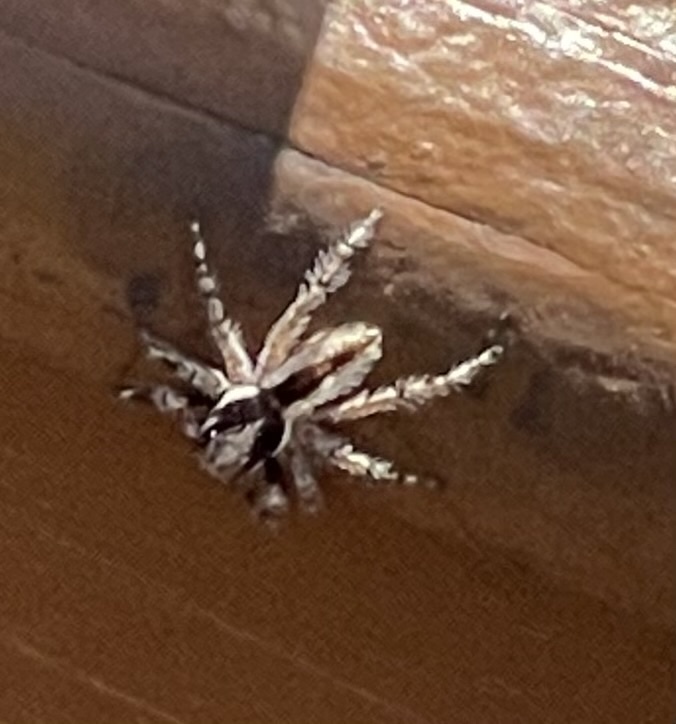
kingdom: Animalia
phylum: Arthropoda
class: Arachnida
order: Araneae
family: Salticidae
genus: Menemerus
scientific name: Menemerus bivittatus
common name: Gray wall jumper
